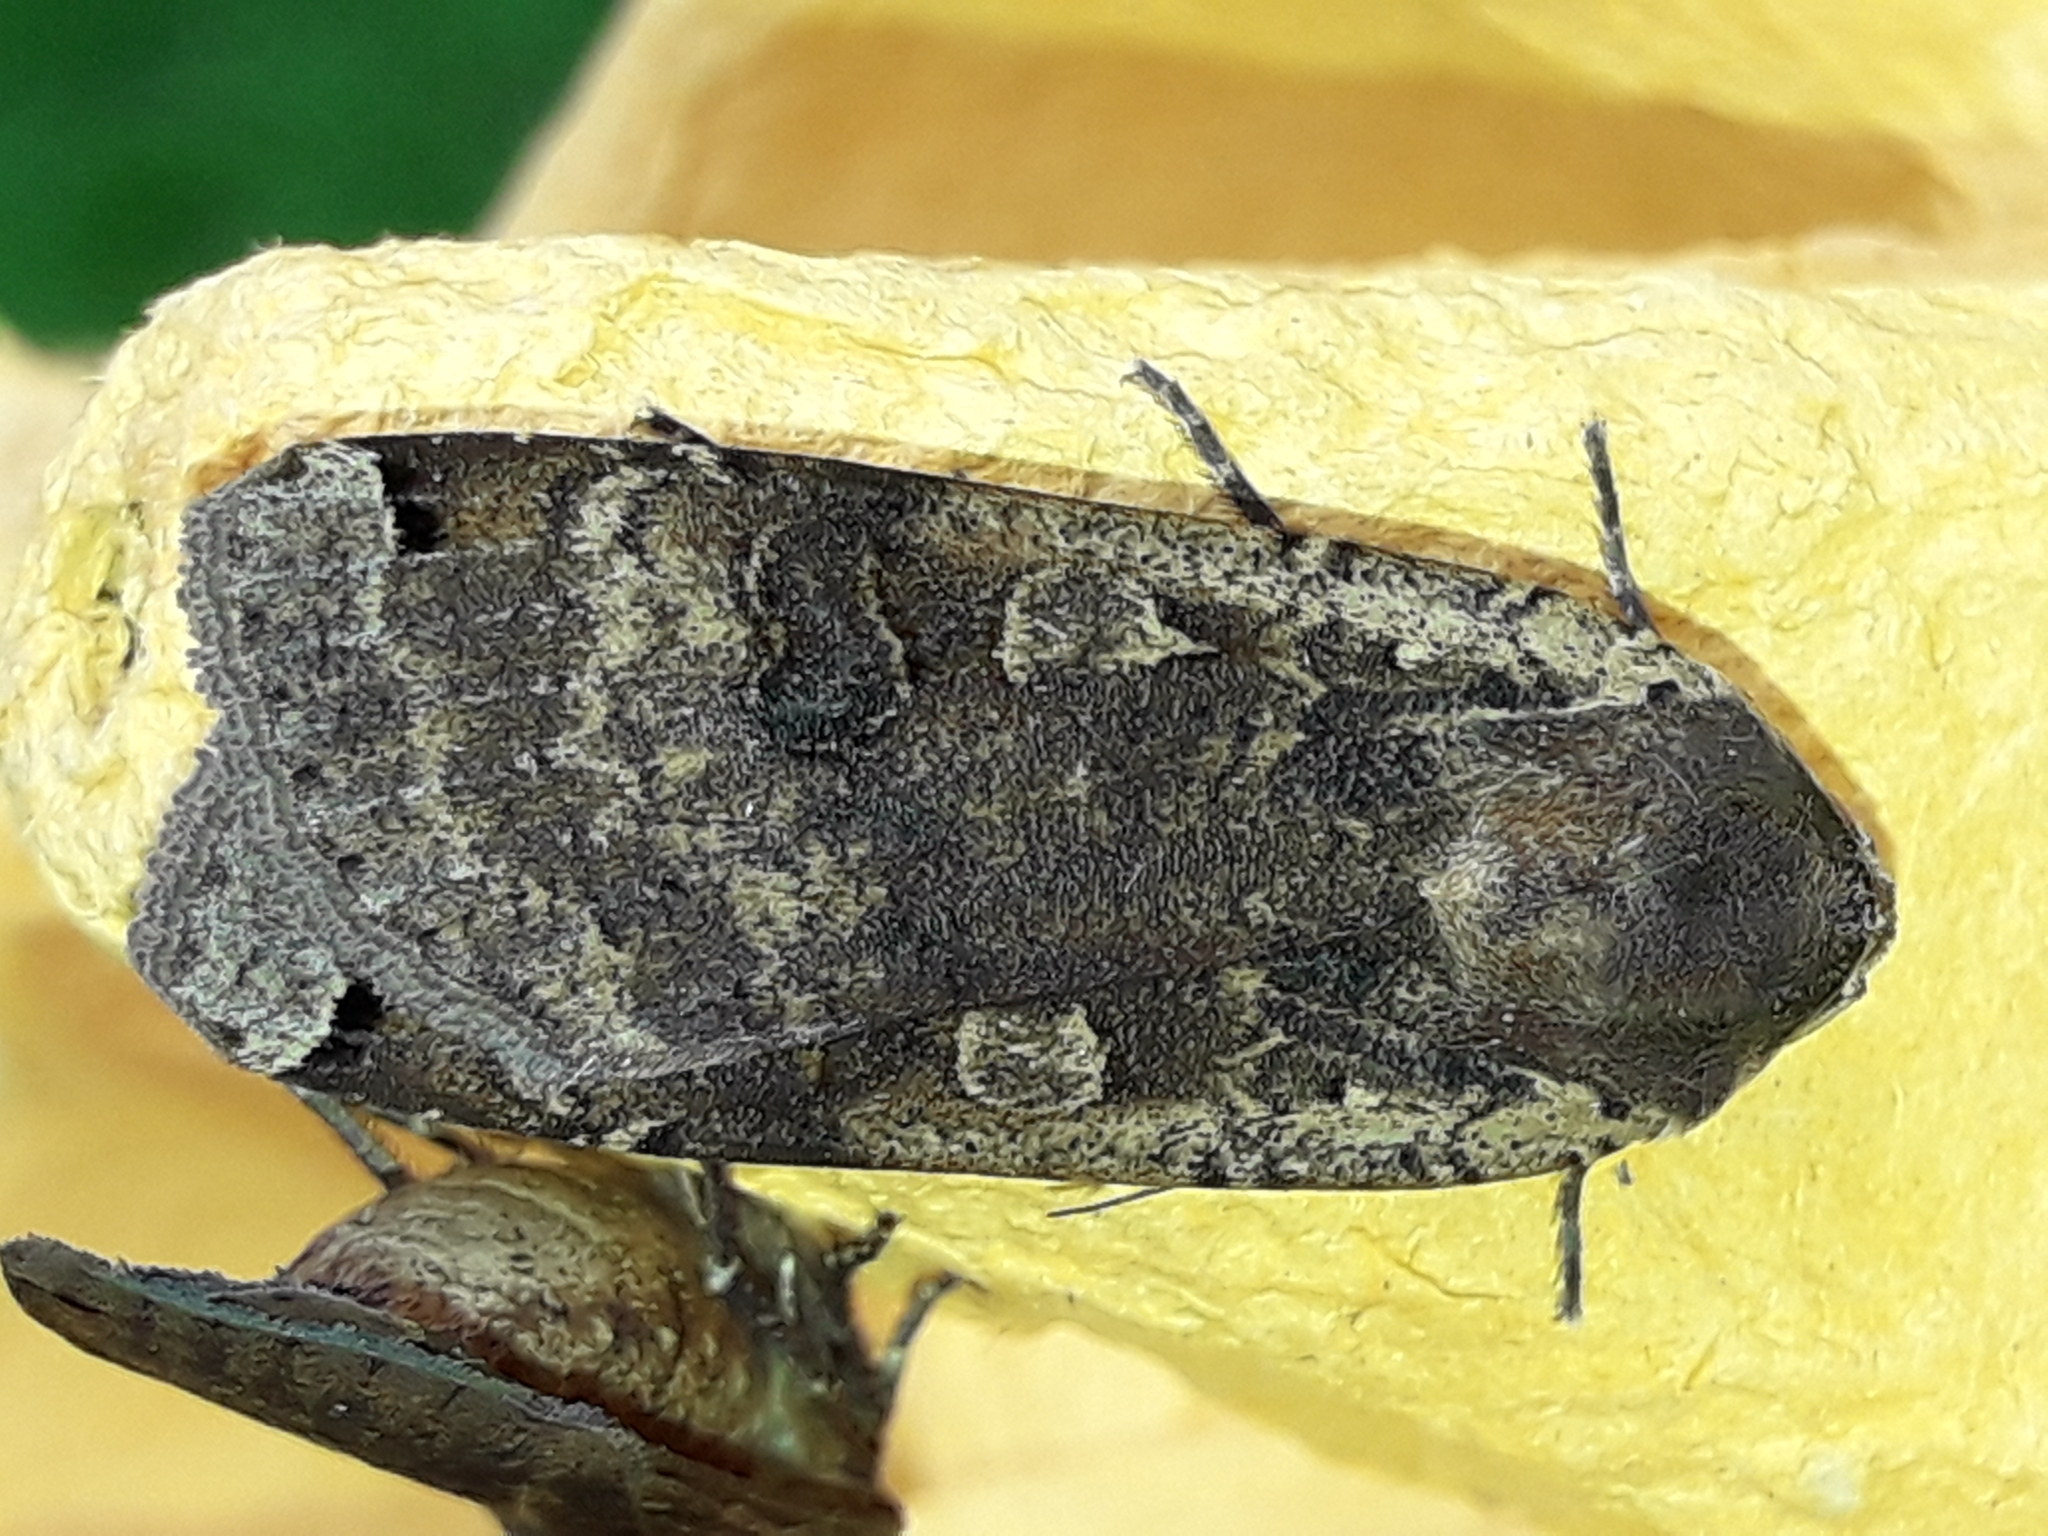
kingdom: Animalia
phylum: Arthropoda
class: Insecta
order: Lepidoptera
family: Noctuidae
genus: Noctua
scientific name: Noctua pronuba
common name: Large yellow underwing
